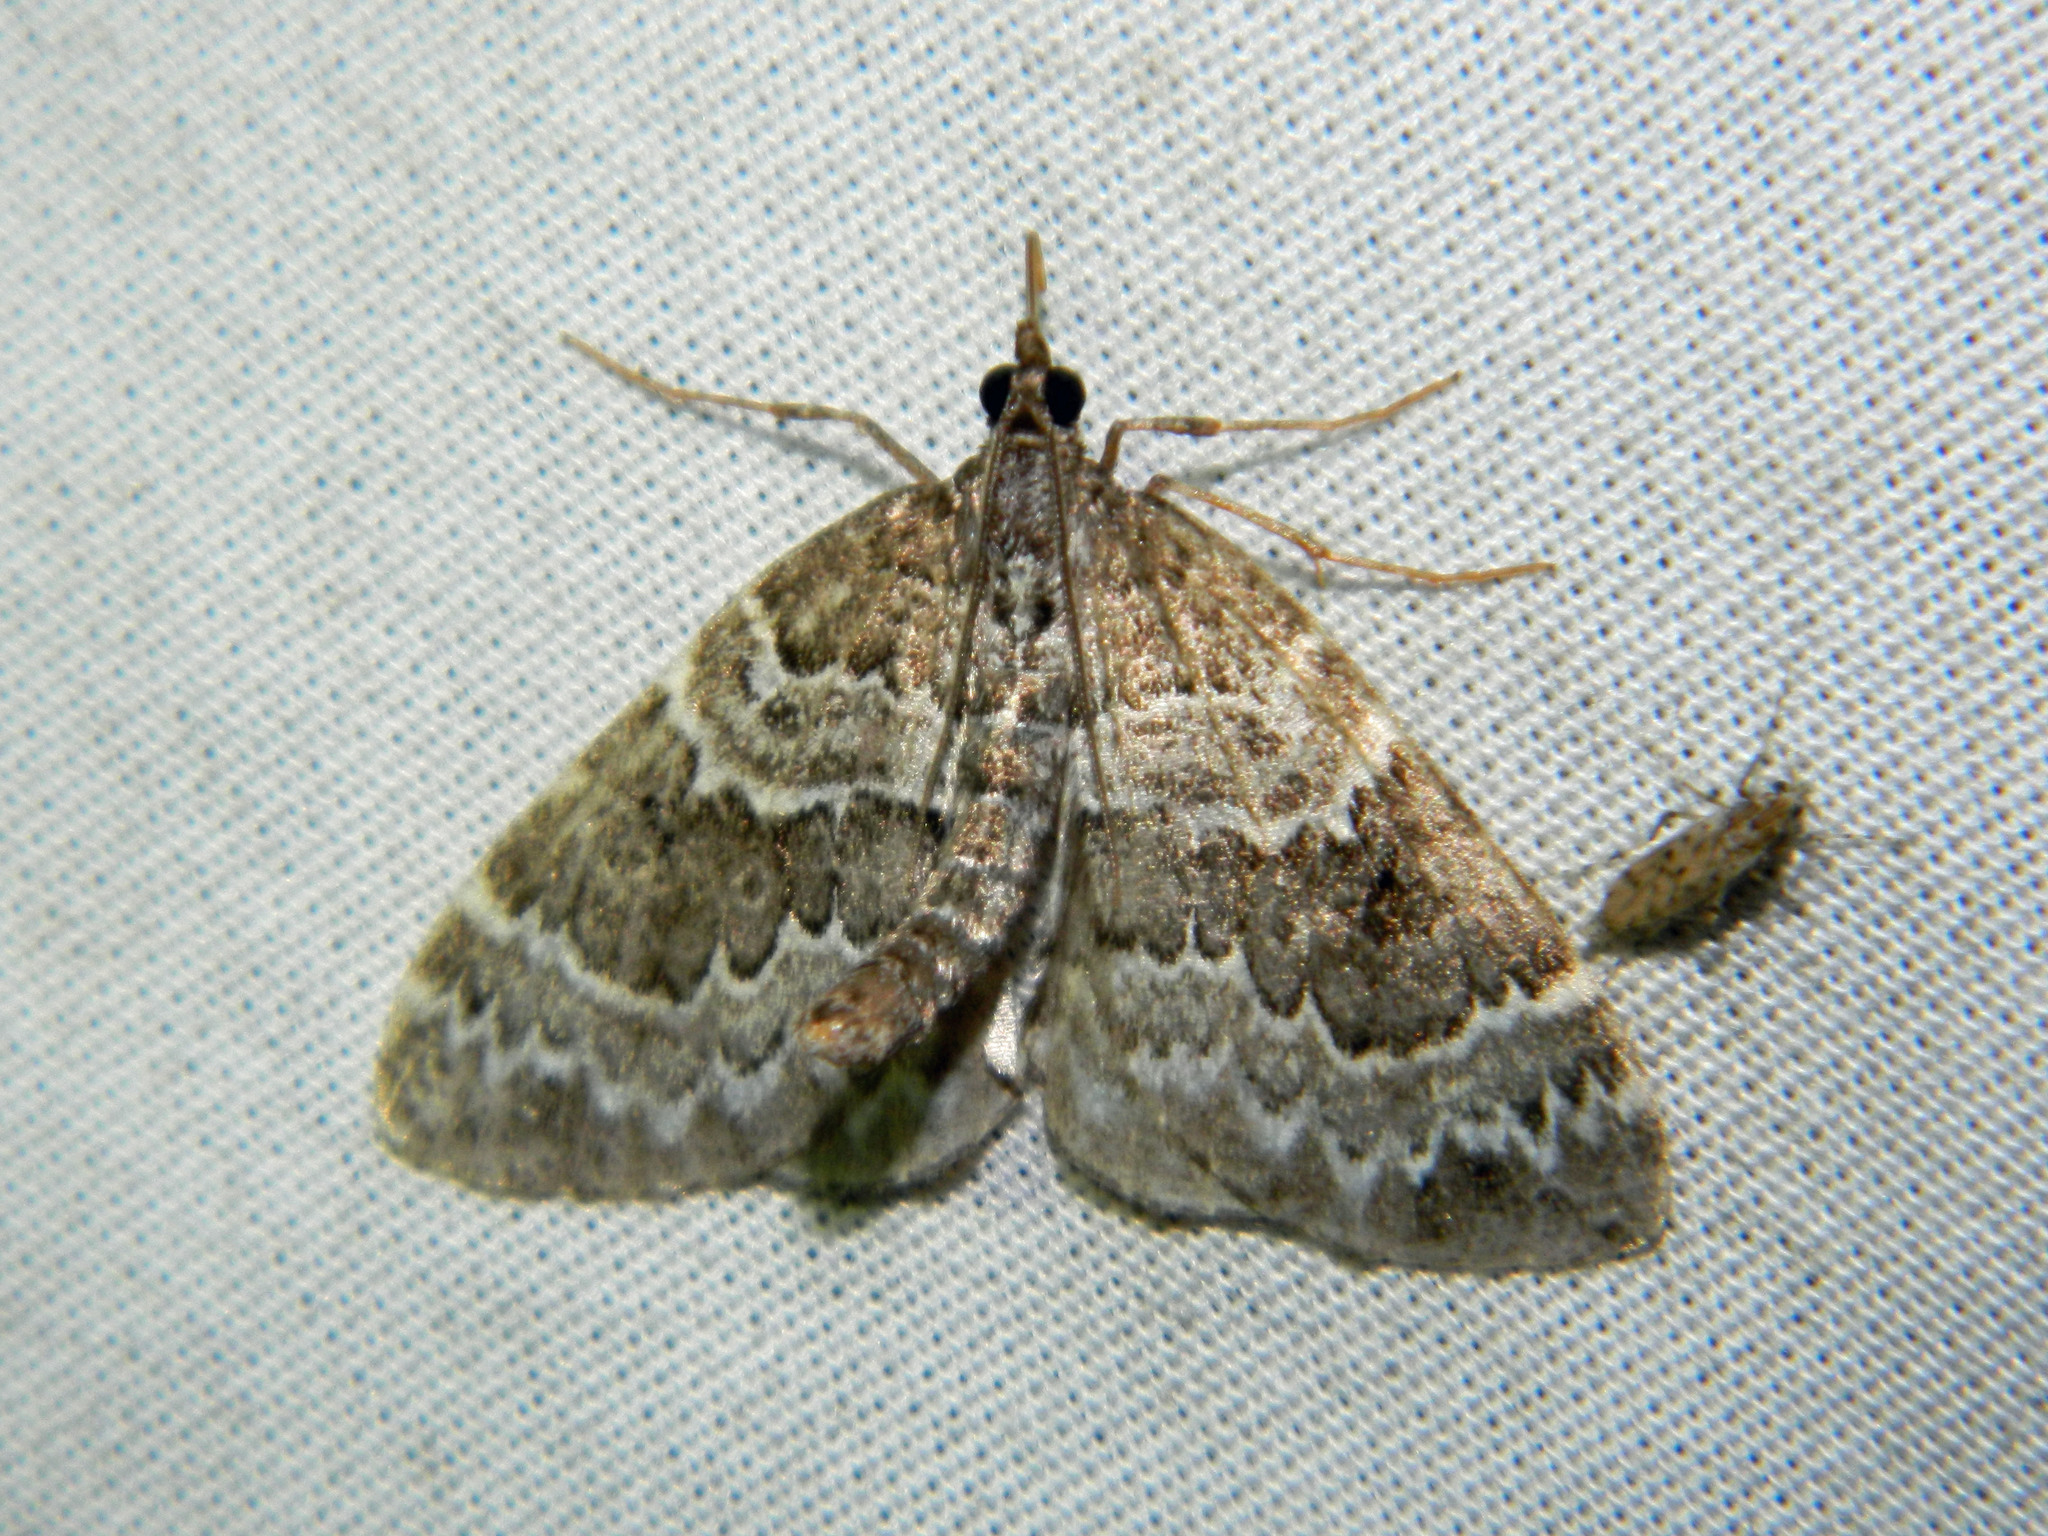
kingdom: Animalia
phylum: Arthropoda
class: Insecta
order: Lepidoptera
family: Geometridae
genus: Eulithis
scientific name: Eulithis explanata
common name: White eulithis
